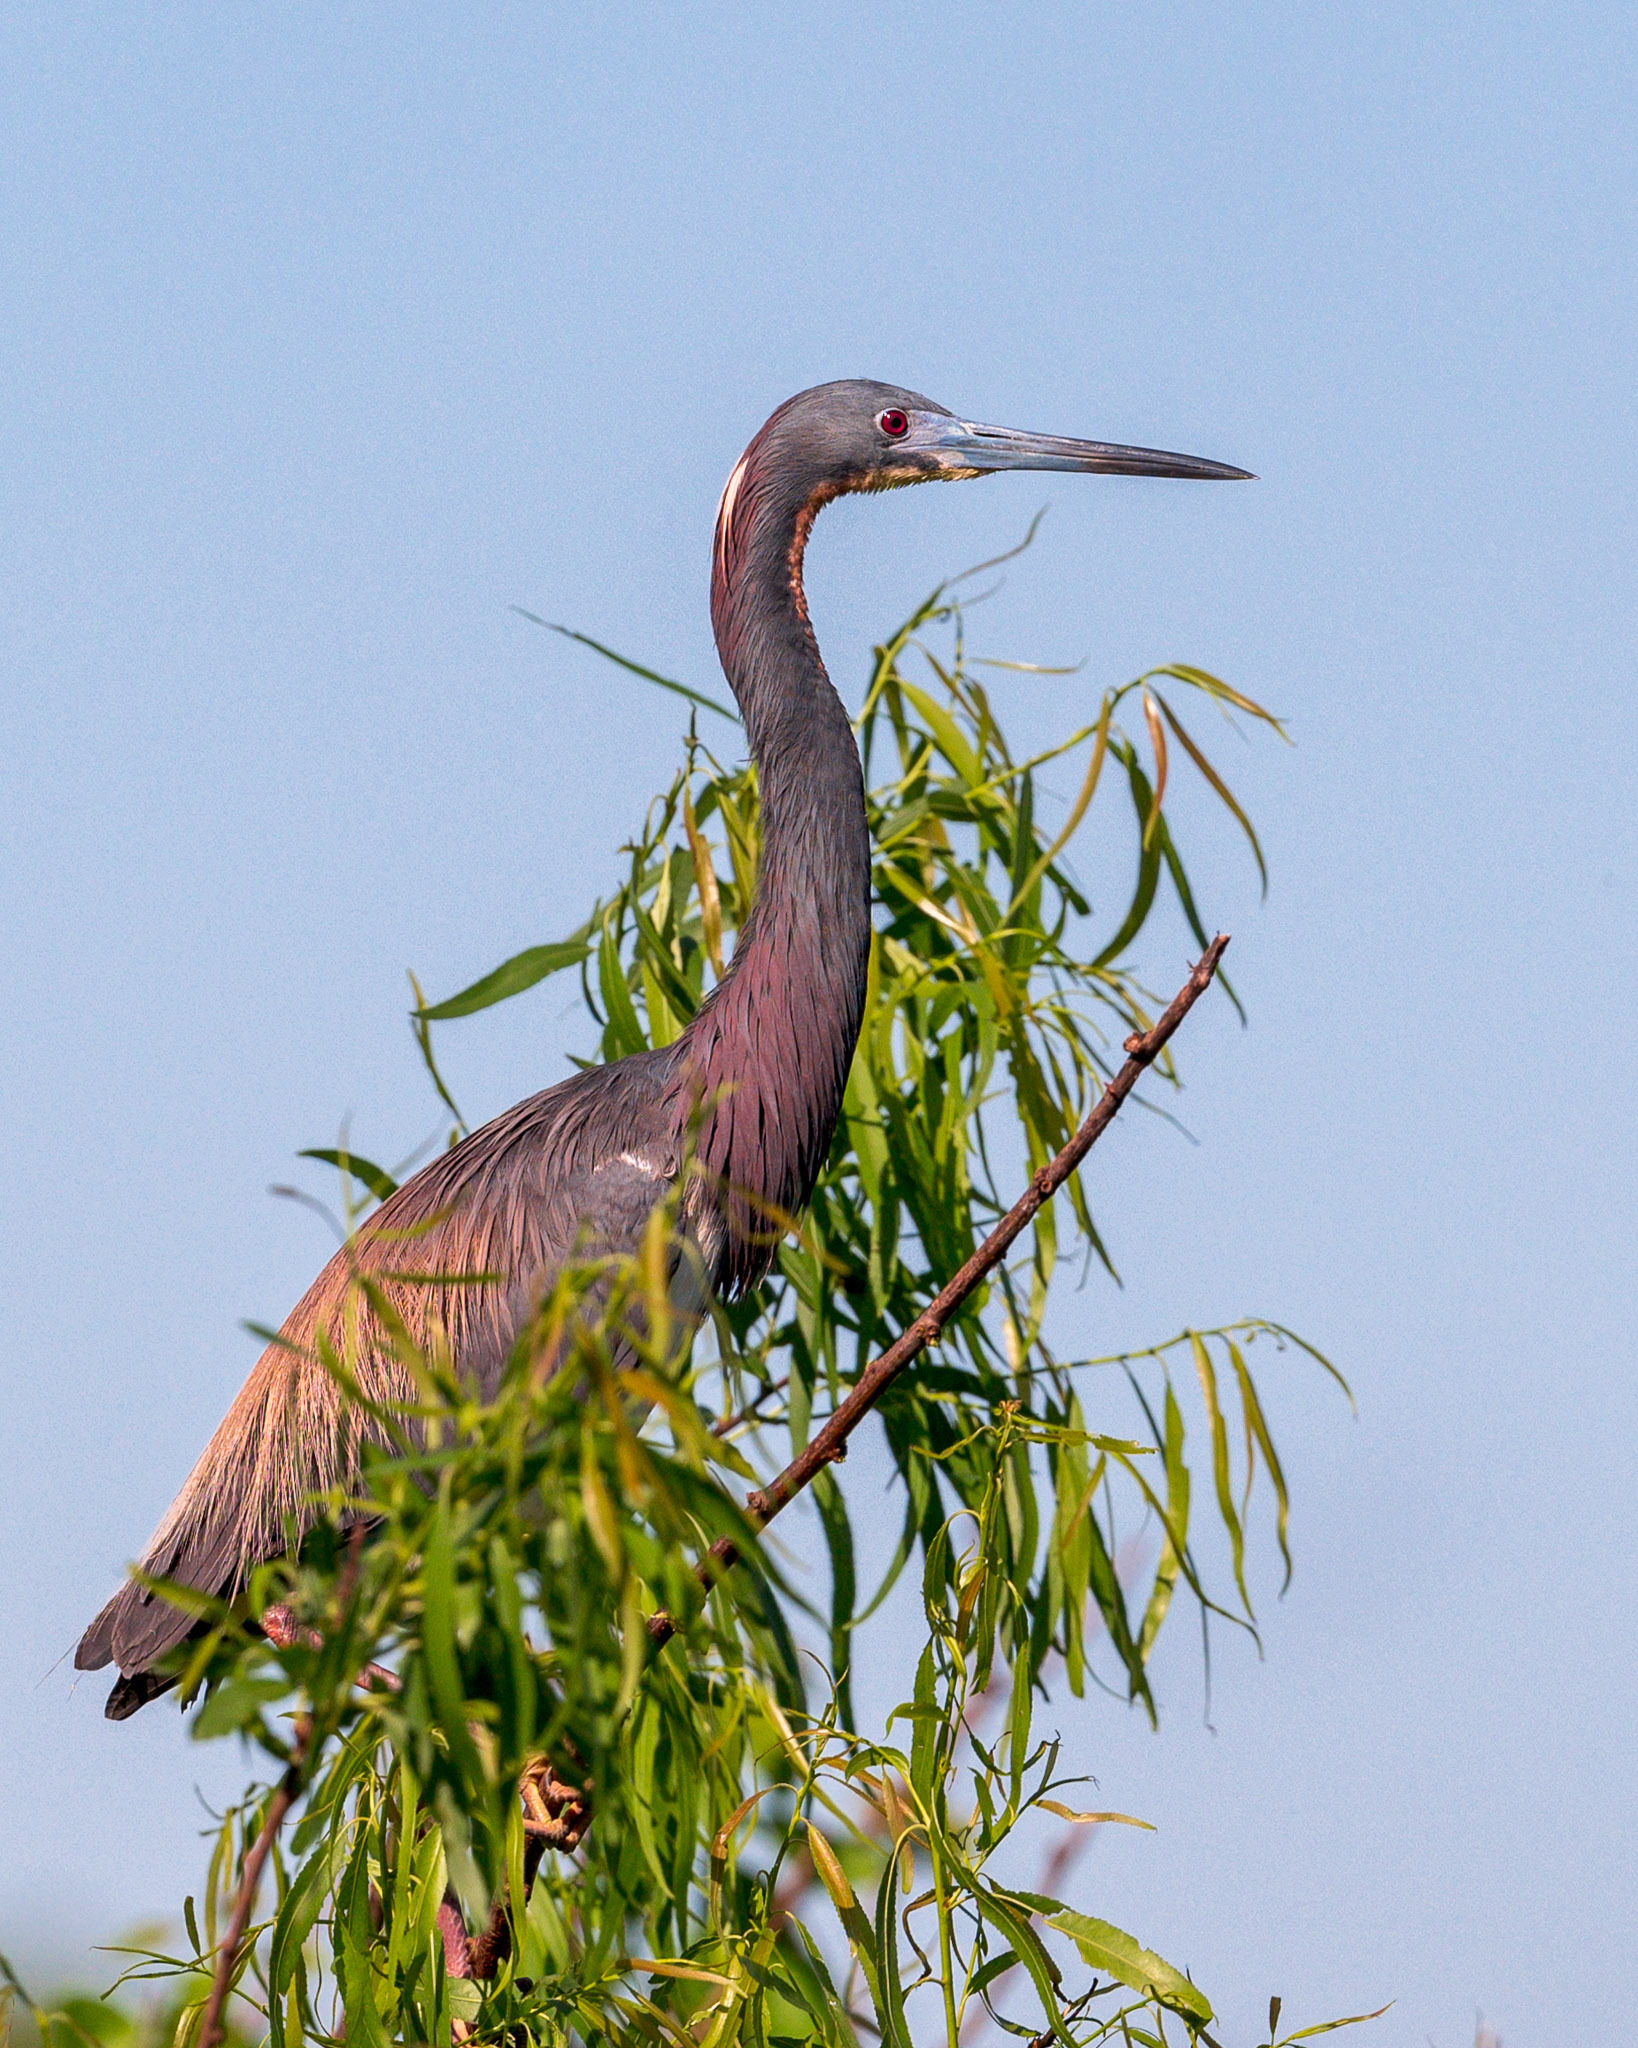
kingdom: Animalia
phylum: Chordata
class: Aves
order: Pelecaniformes
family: Ardeidae
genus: Egretta
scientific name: Egretta tricolor
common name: Tricolored heron
